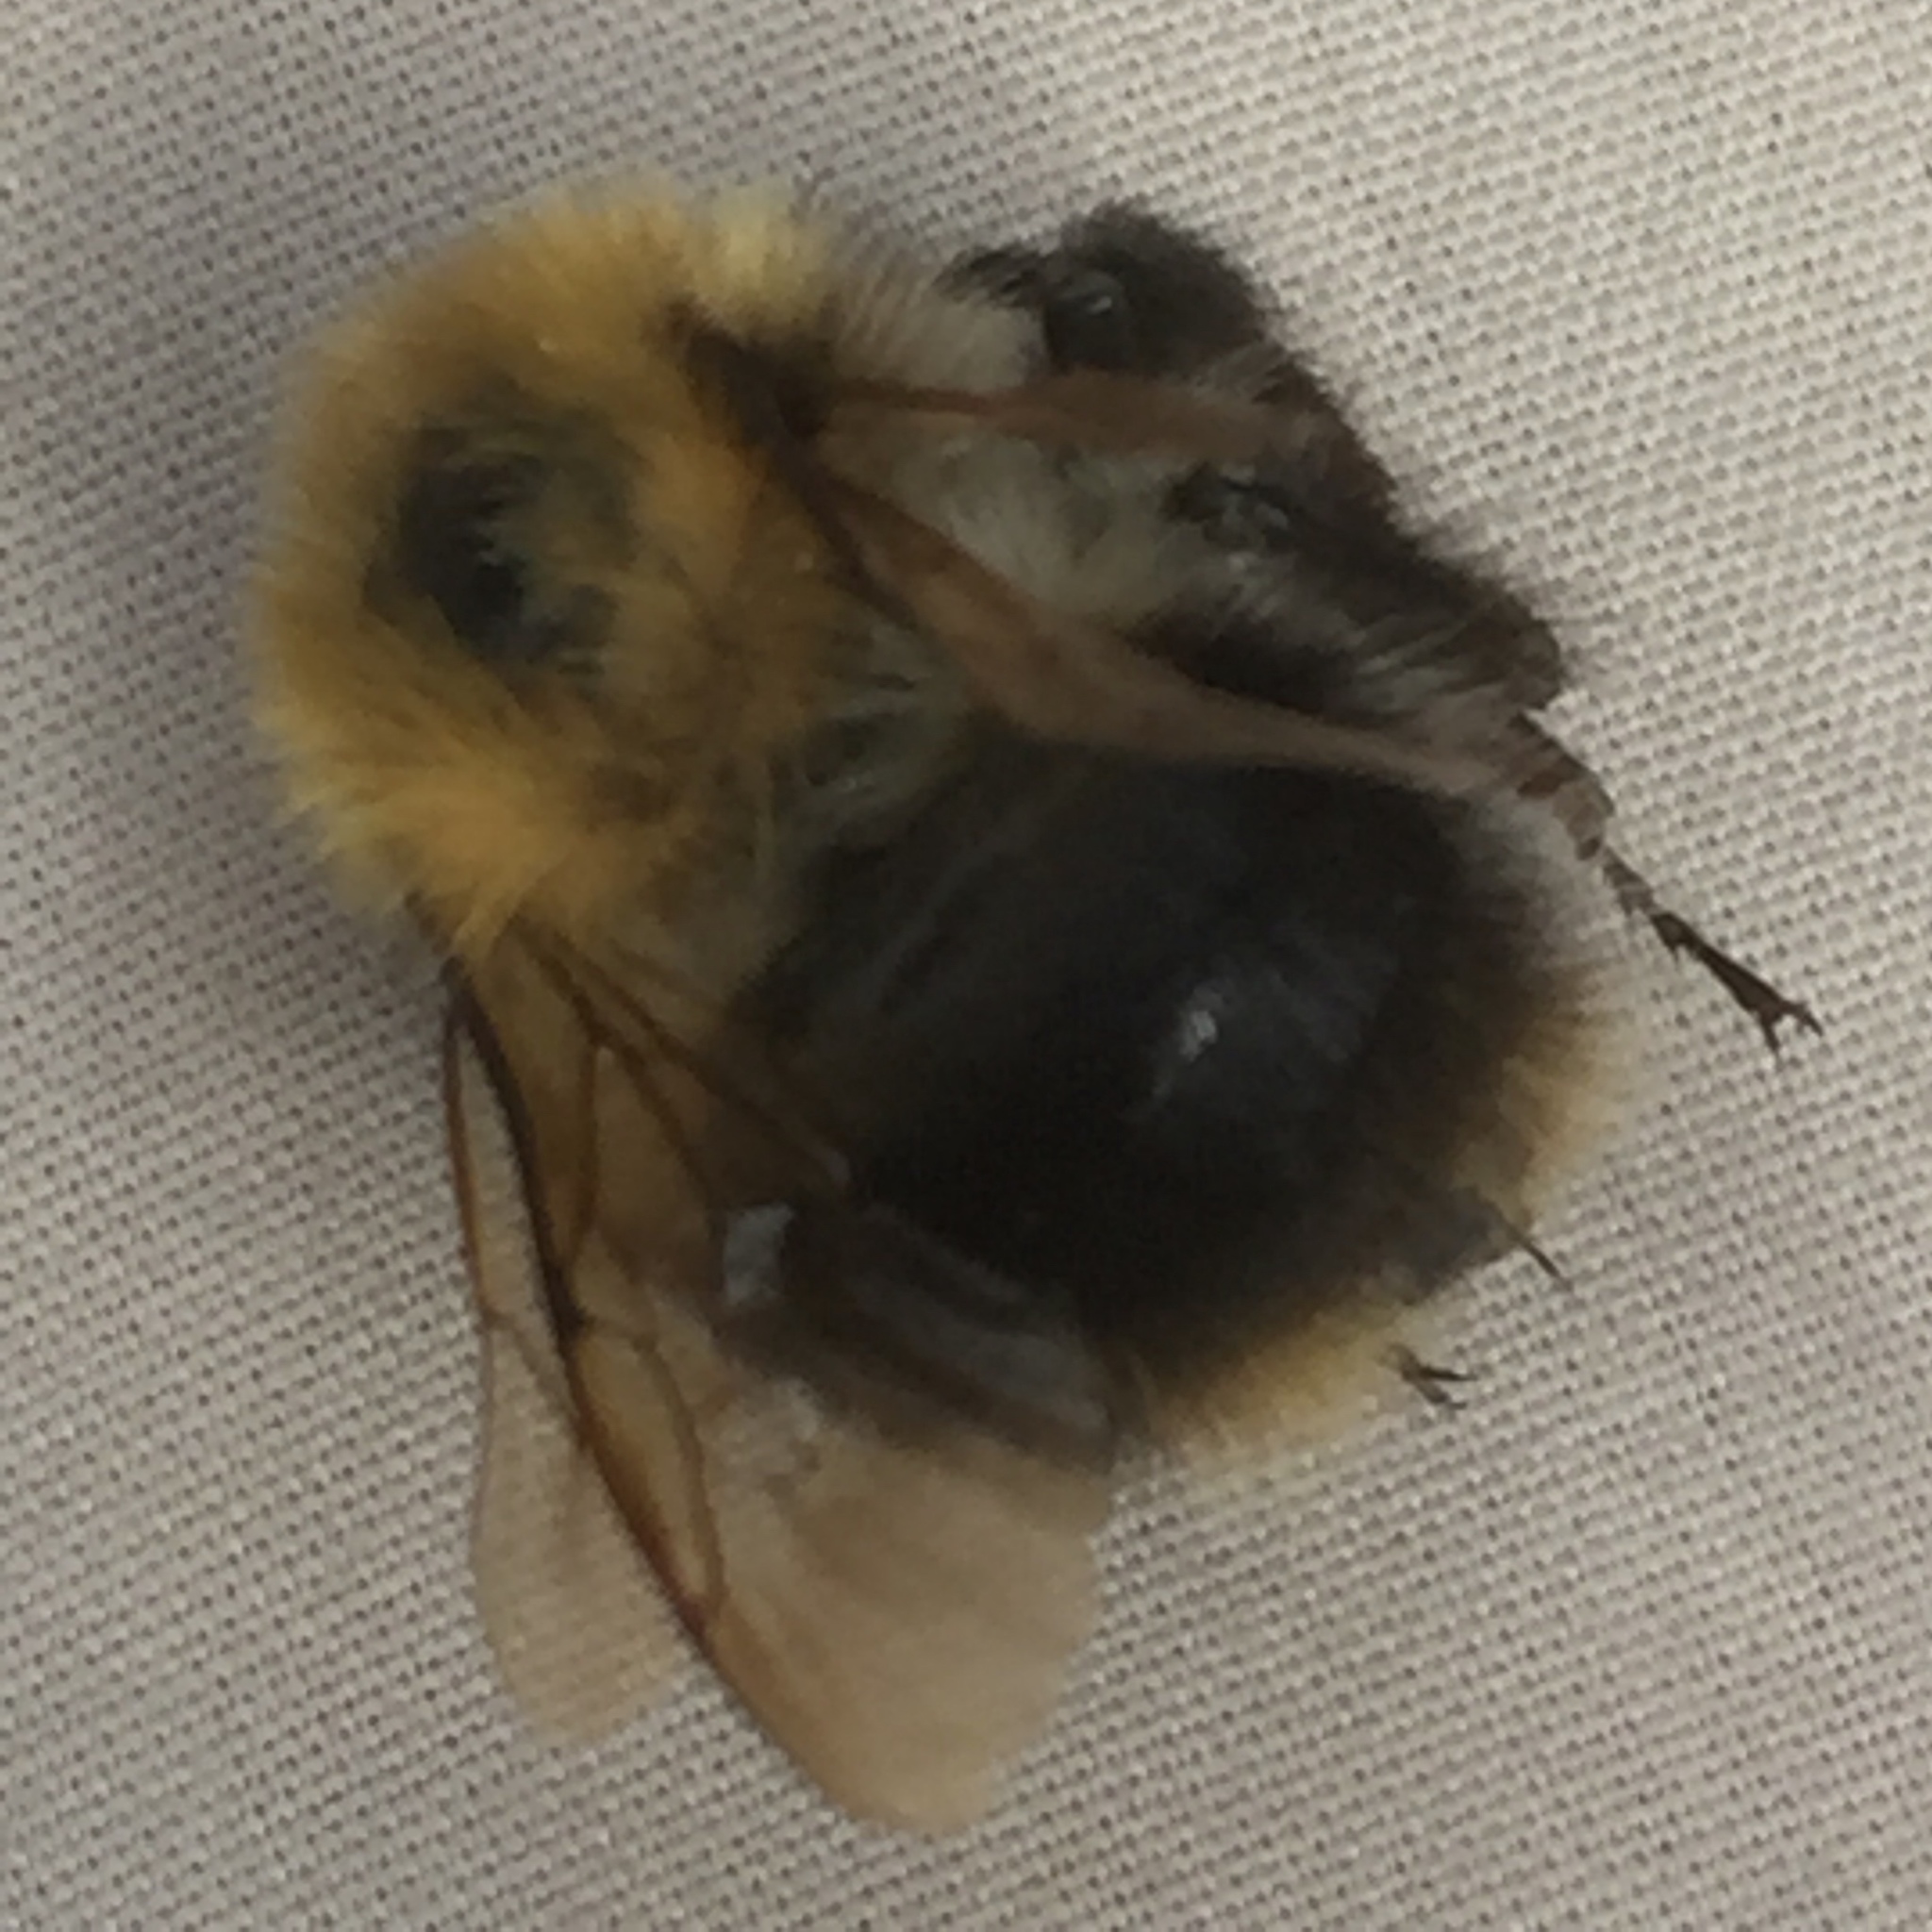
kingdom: Animalia
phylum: Arthropoda
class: Insecta
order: Hymenoptera
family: Apidae
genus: Bombus
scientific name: Bombus pascuorum
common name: Common carder bee
